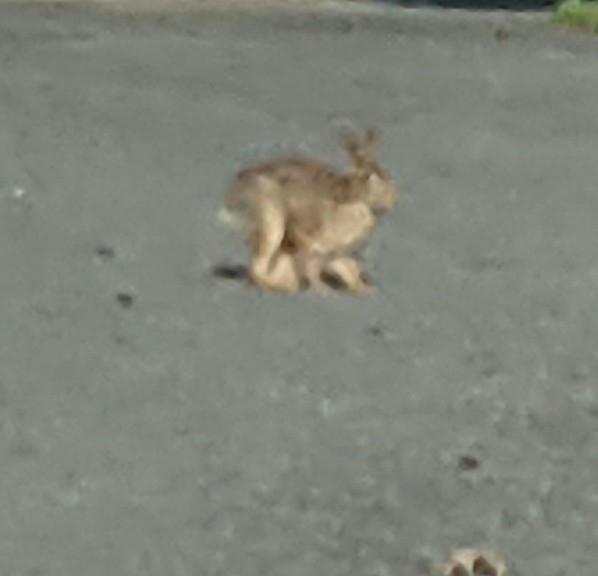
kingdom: Animalia
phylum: Chordata
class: Mammalia
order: Lagomorpha
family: Leporidae
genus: Sylvilagus
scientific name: Sylvilagus floridanus
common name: Eastern cottontail
